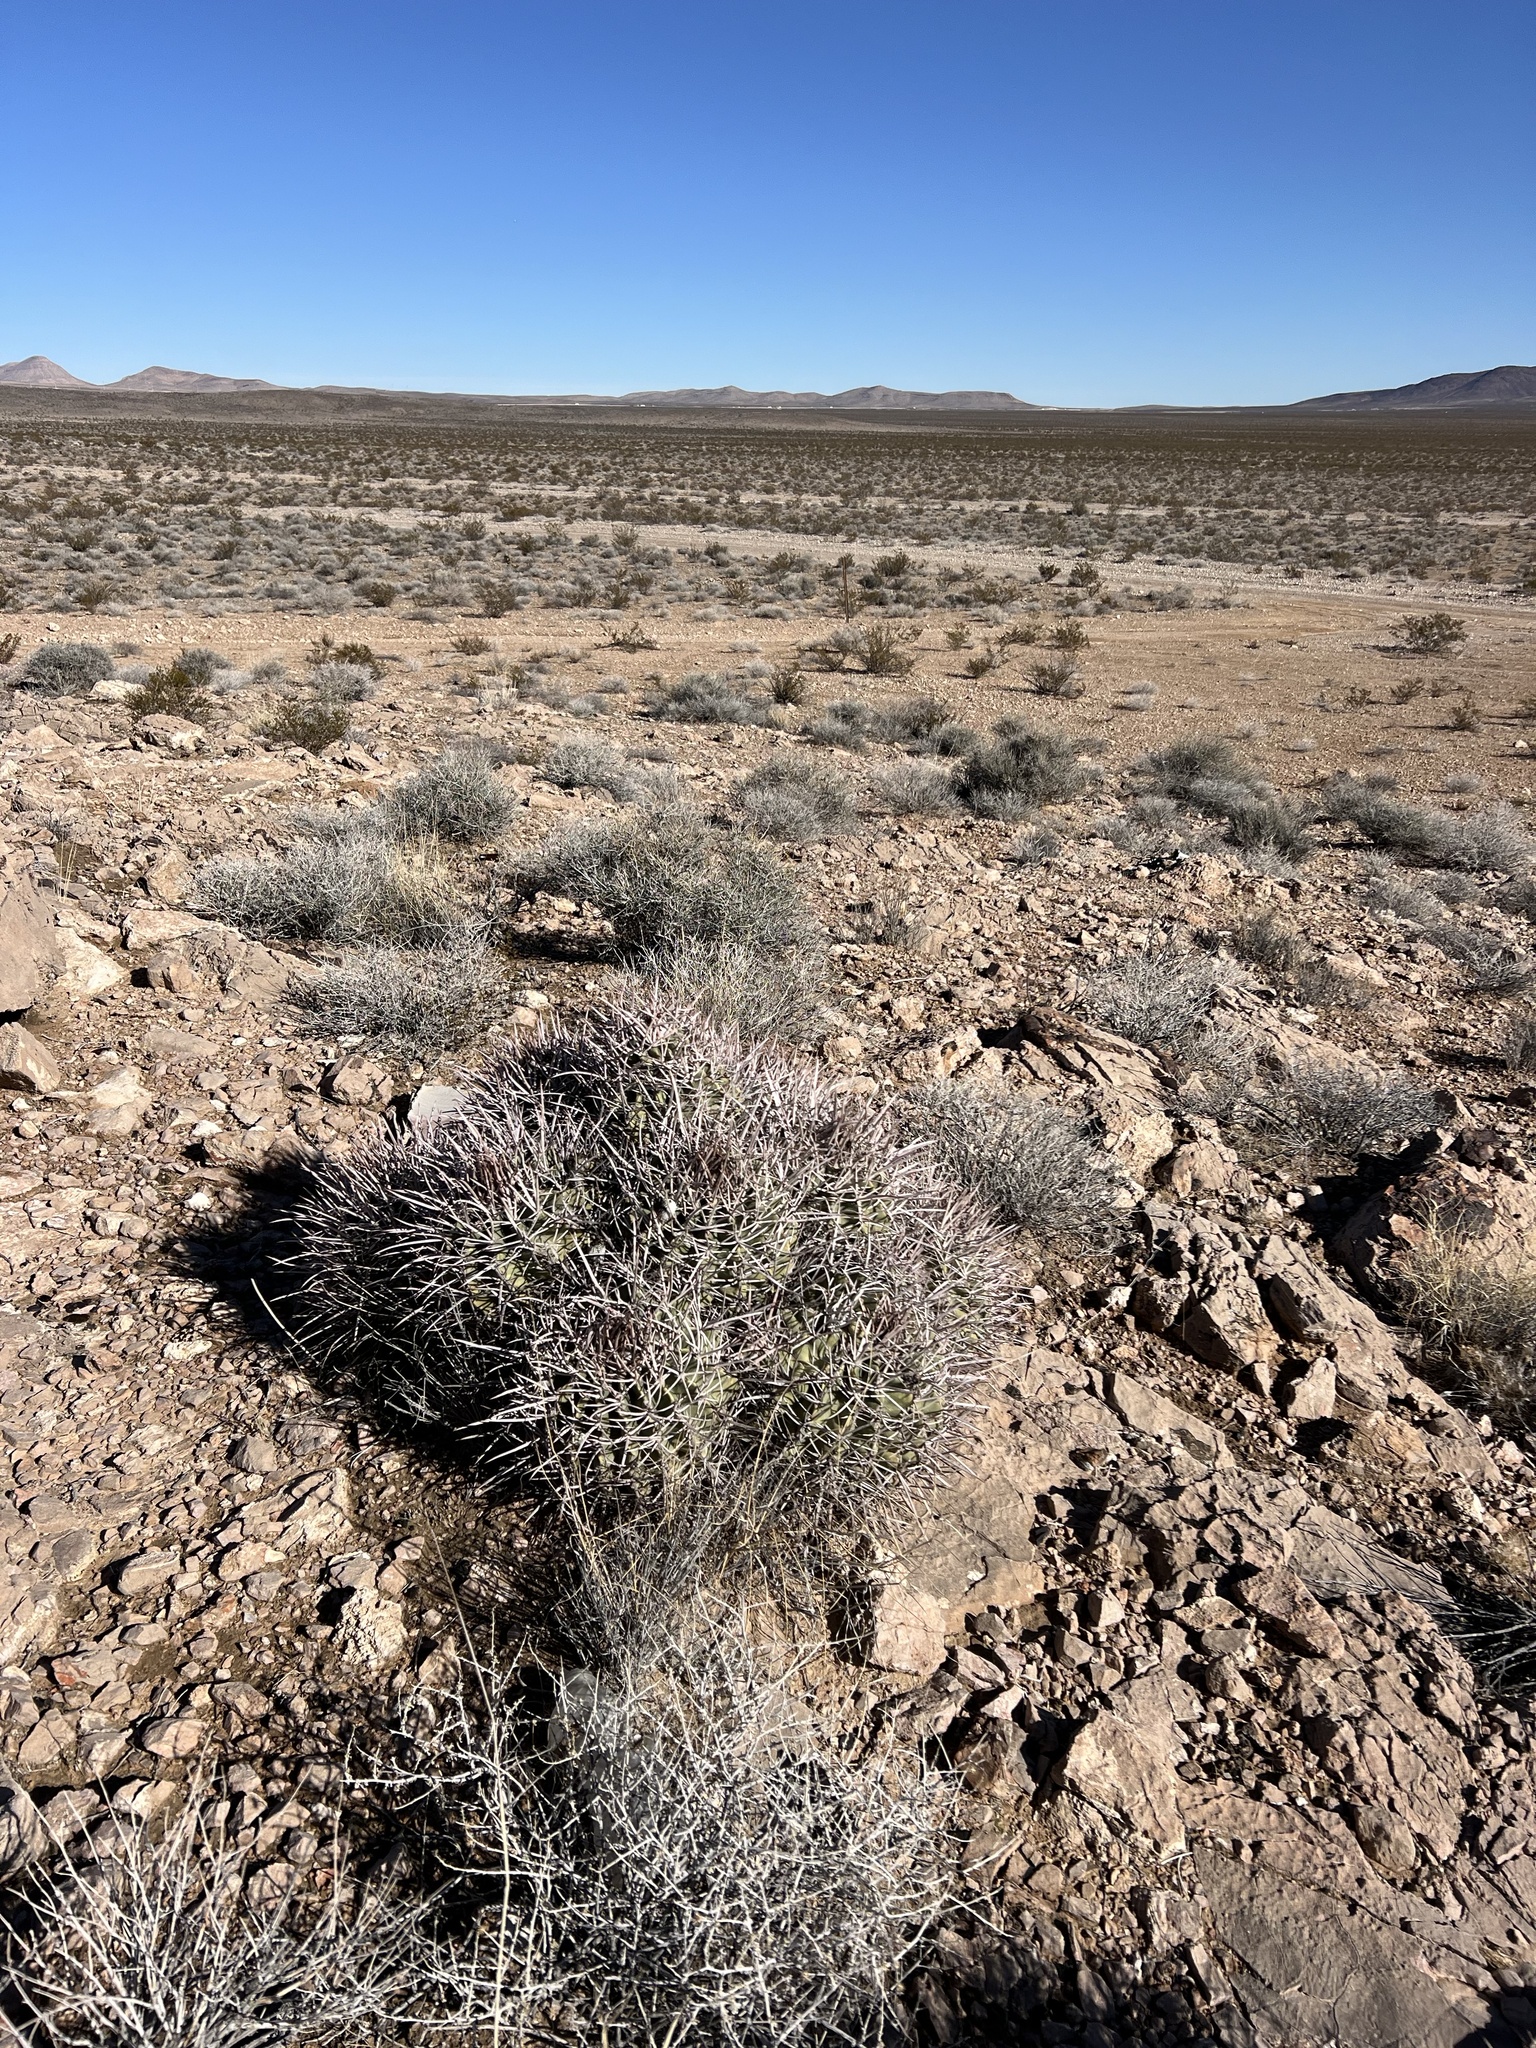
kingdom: Plantae
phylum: Tracheophyta
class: Magnoliopsida
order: Caryophyllales
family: Cactaceae
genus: Echinocactus
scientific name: Echinocactus polycephalus
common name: Cottontop cactus
